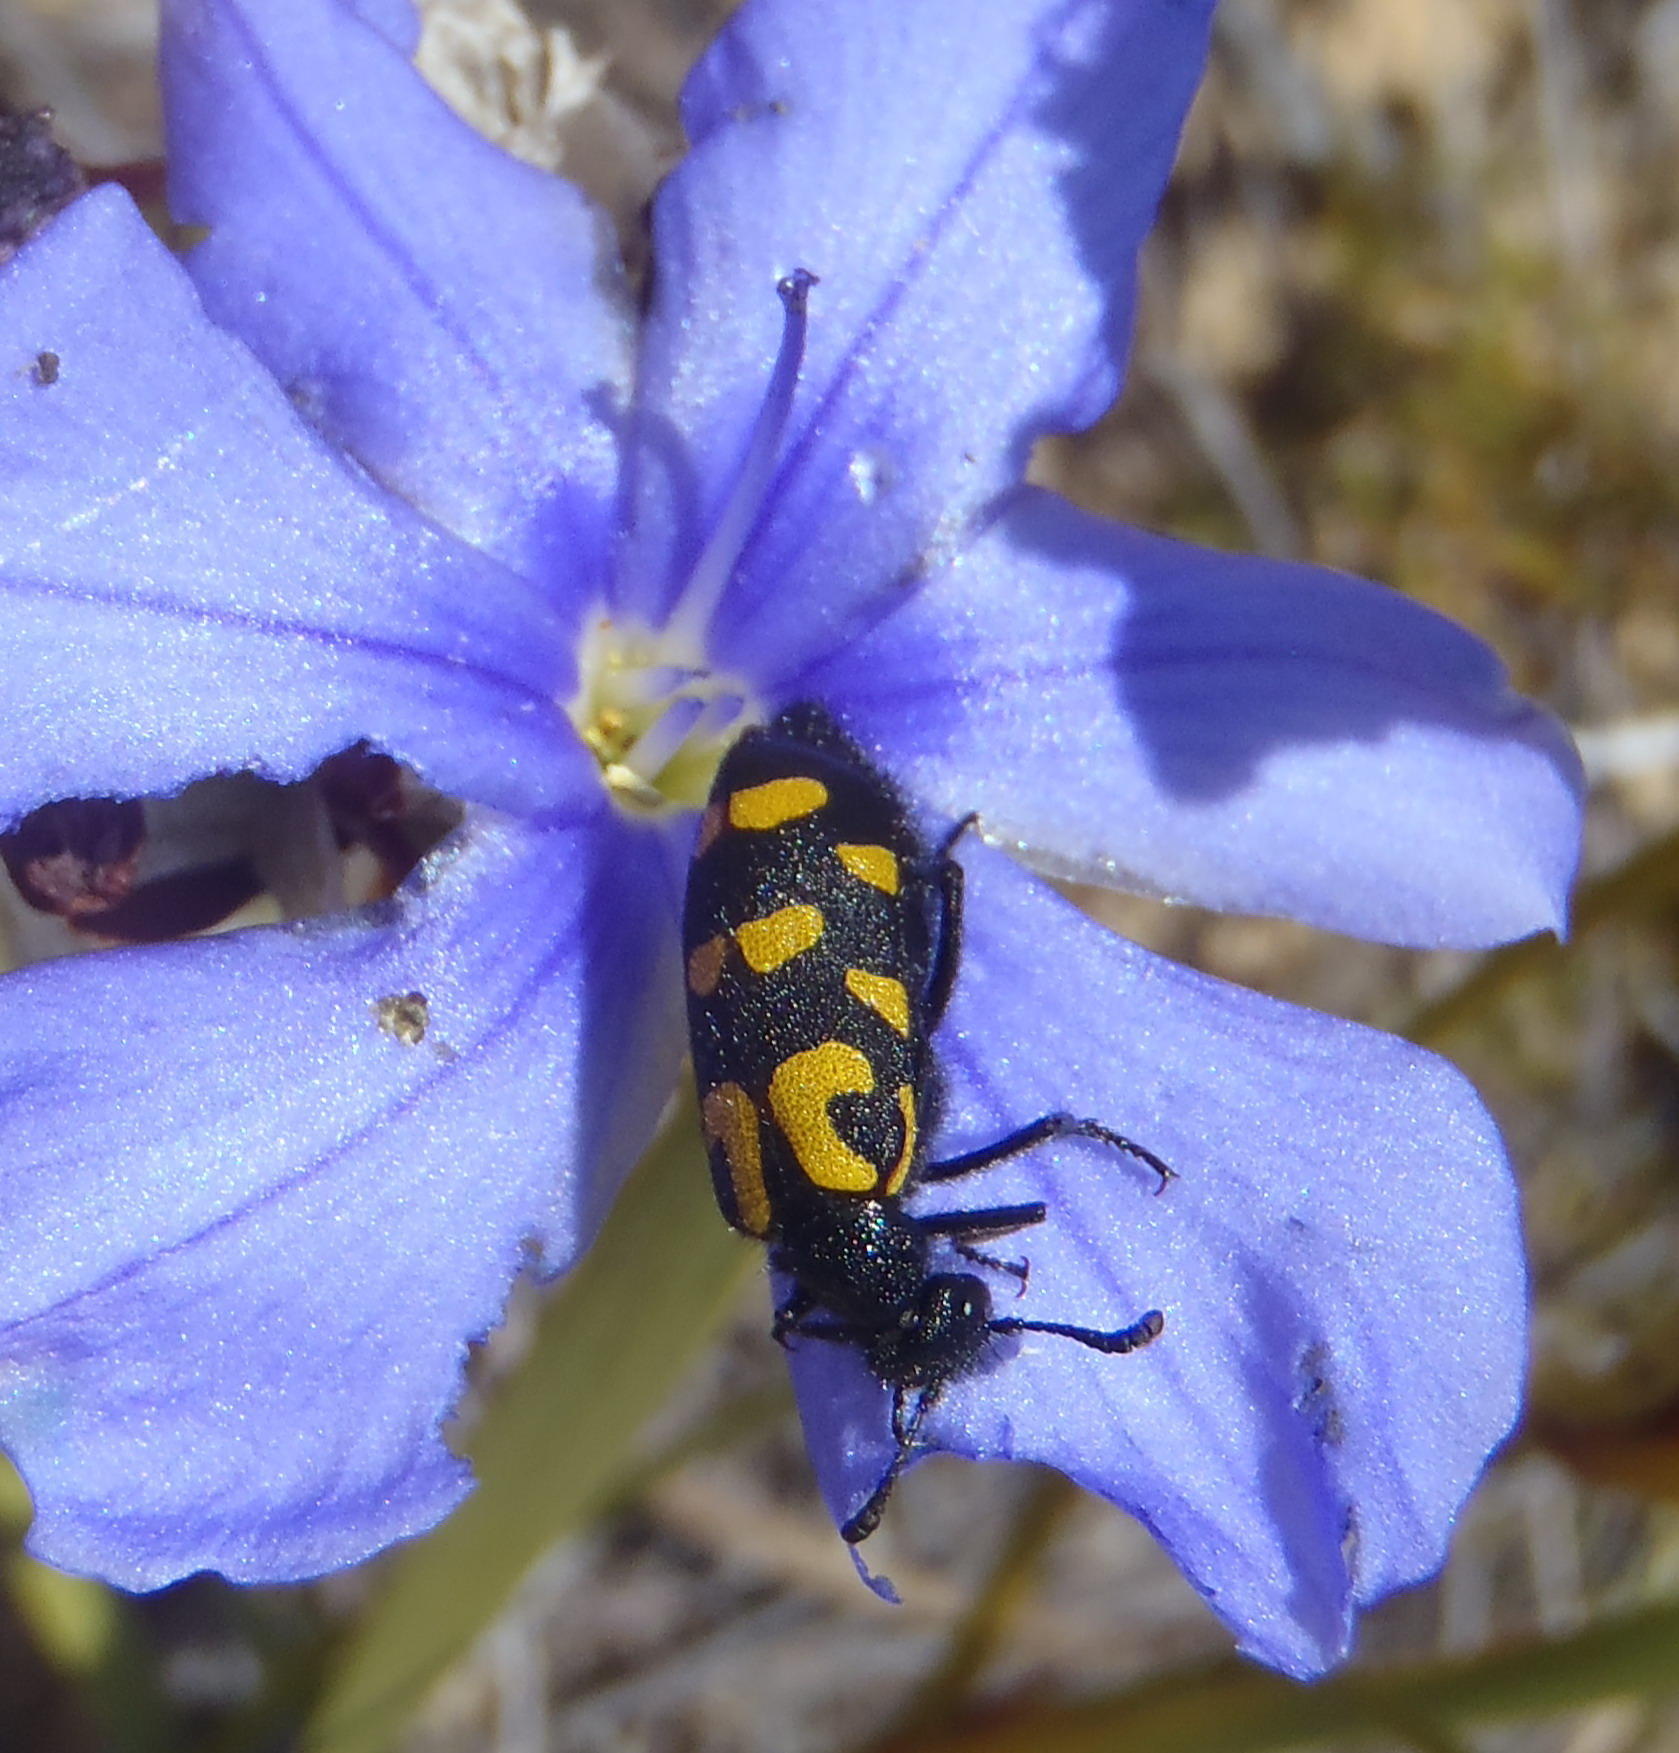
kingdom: Animalia
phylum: Arthropoda
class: Insecta
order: Coleoptera
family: Meloidae
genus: Ceroctis
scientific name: Ceroctis capensis
